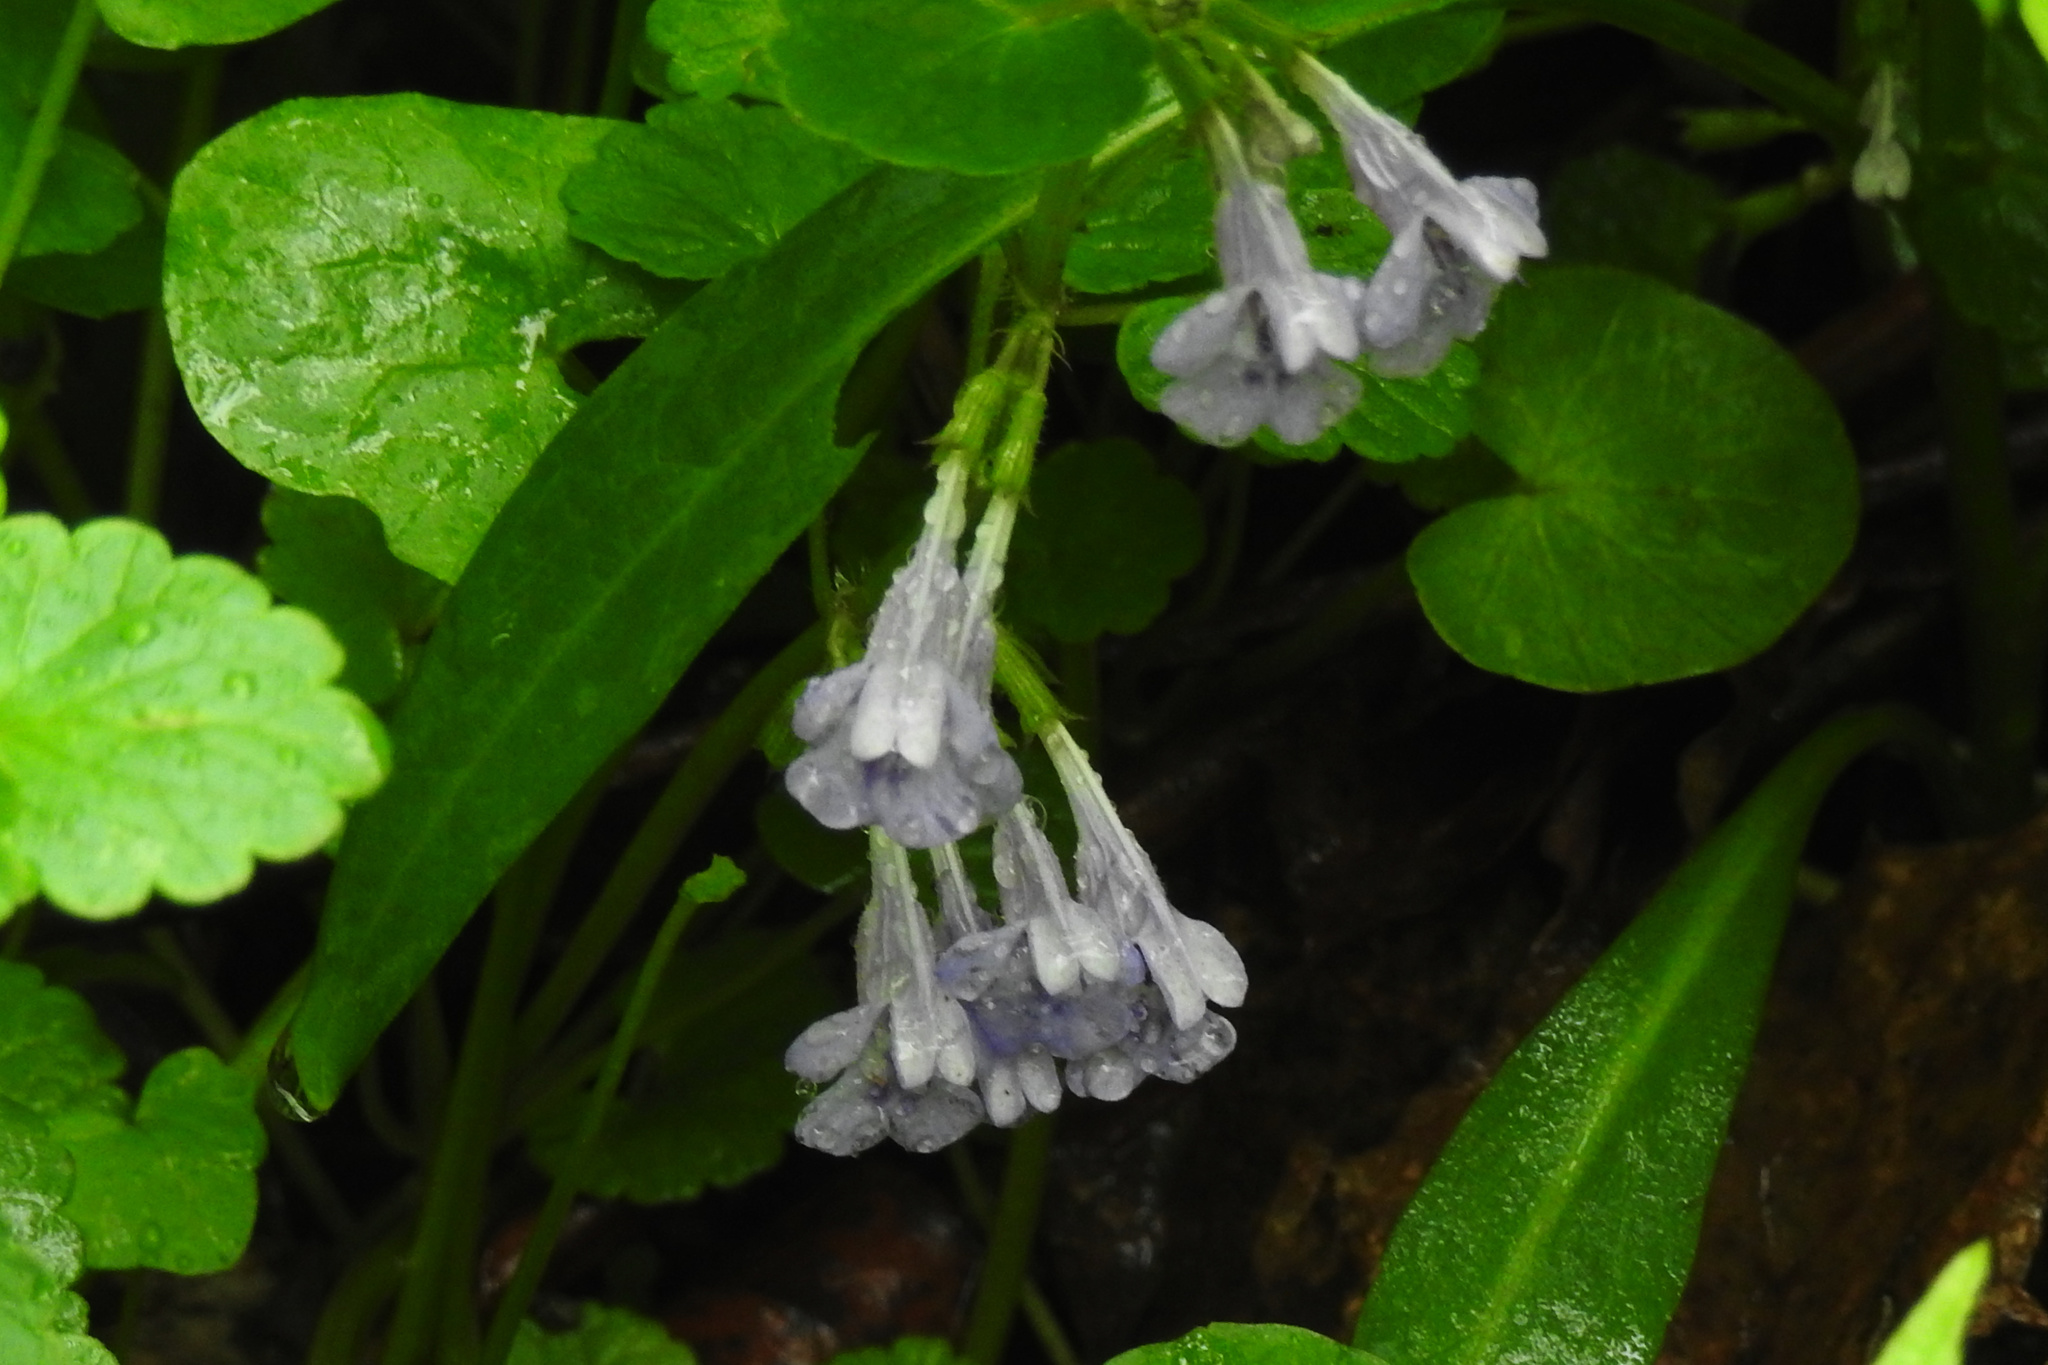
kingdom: Plantae
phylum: Tracheophyta
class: Magnoliopsida
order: Lamiales
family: Lamiaceae
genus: Glechoma
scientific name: Glechoma hederacea
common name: Ground ivy
